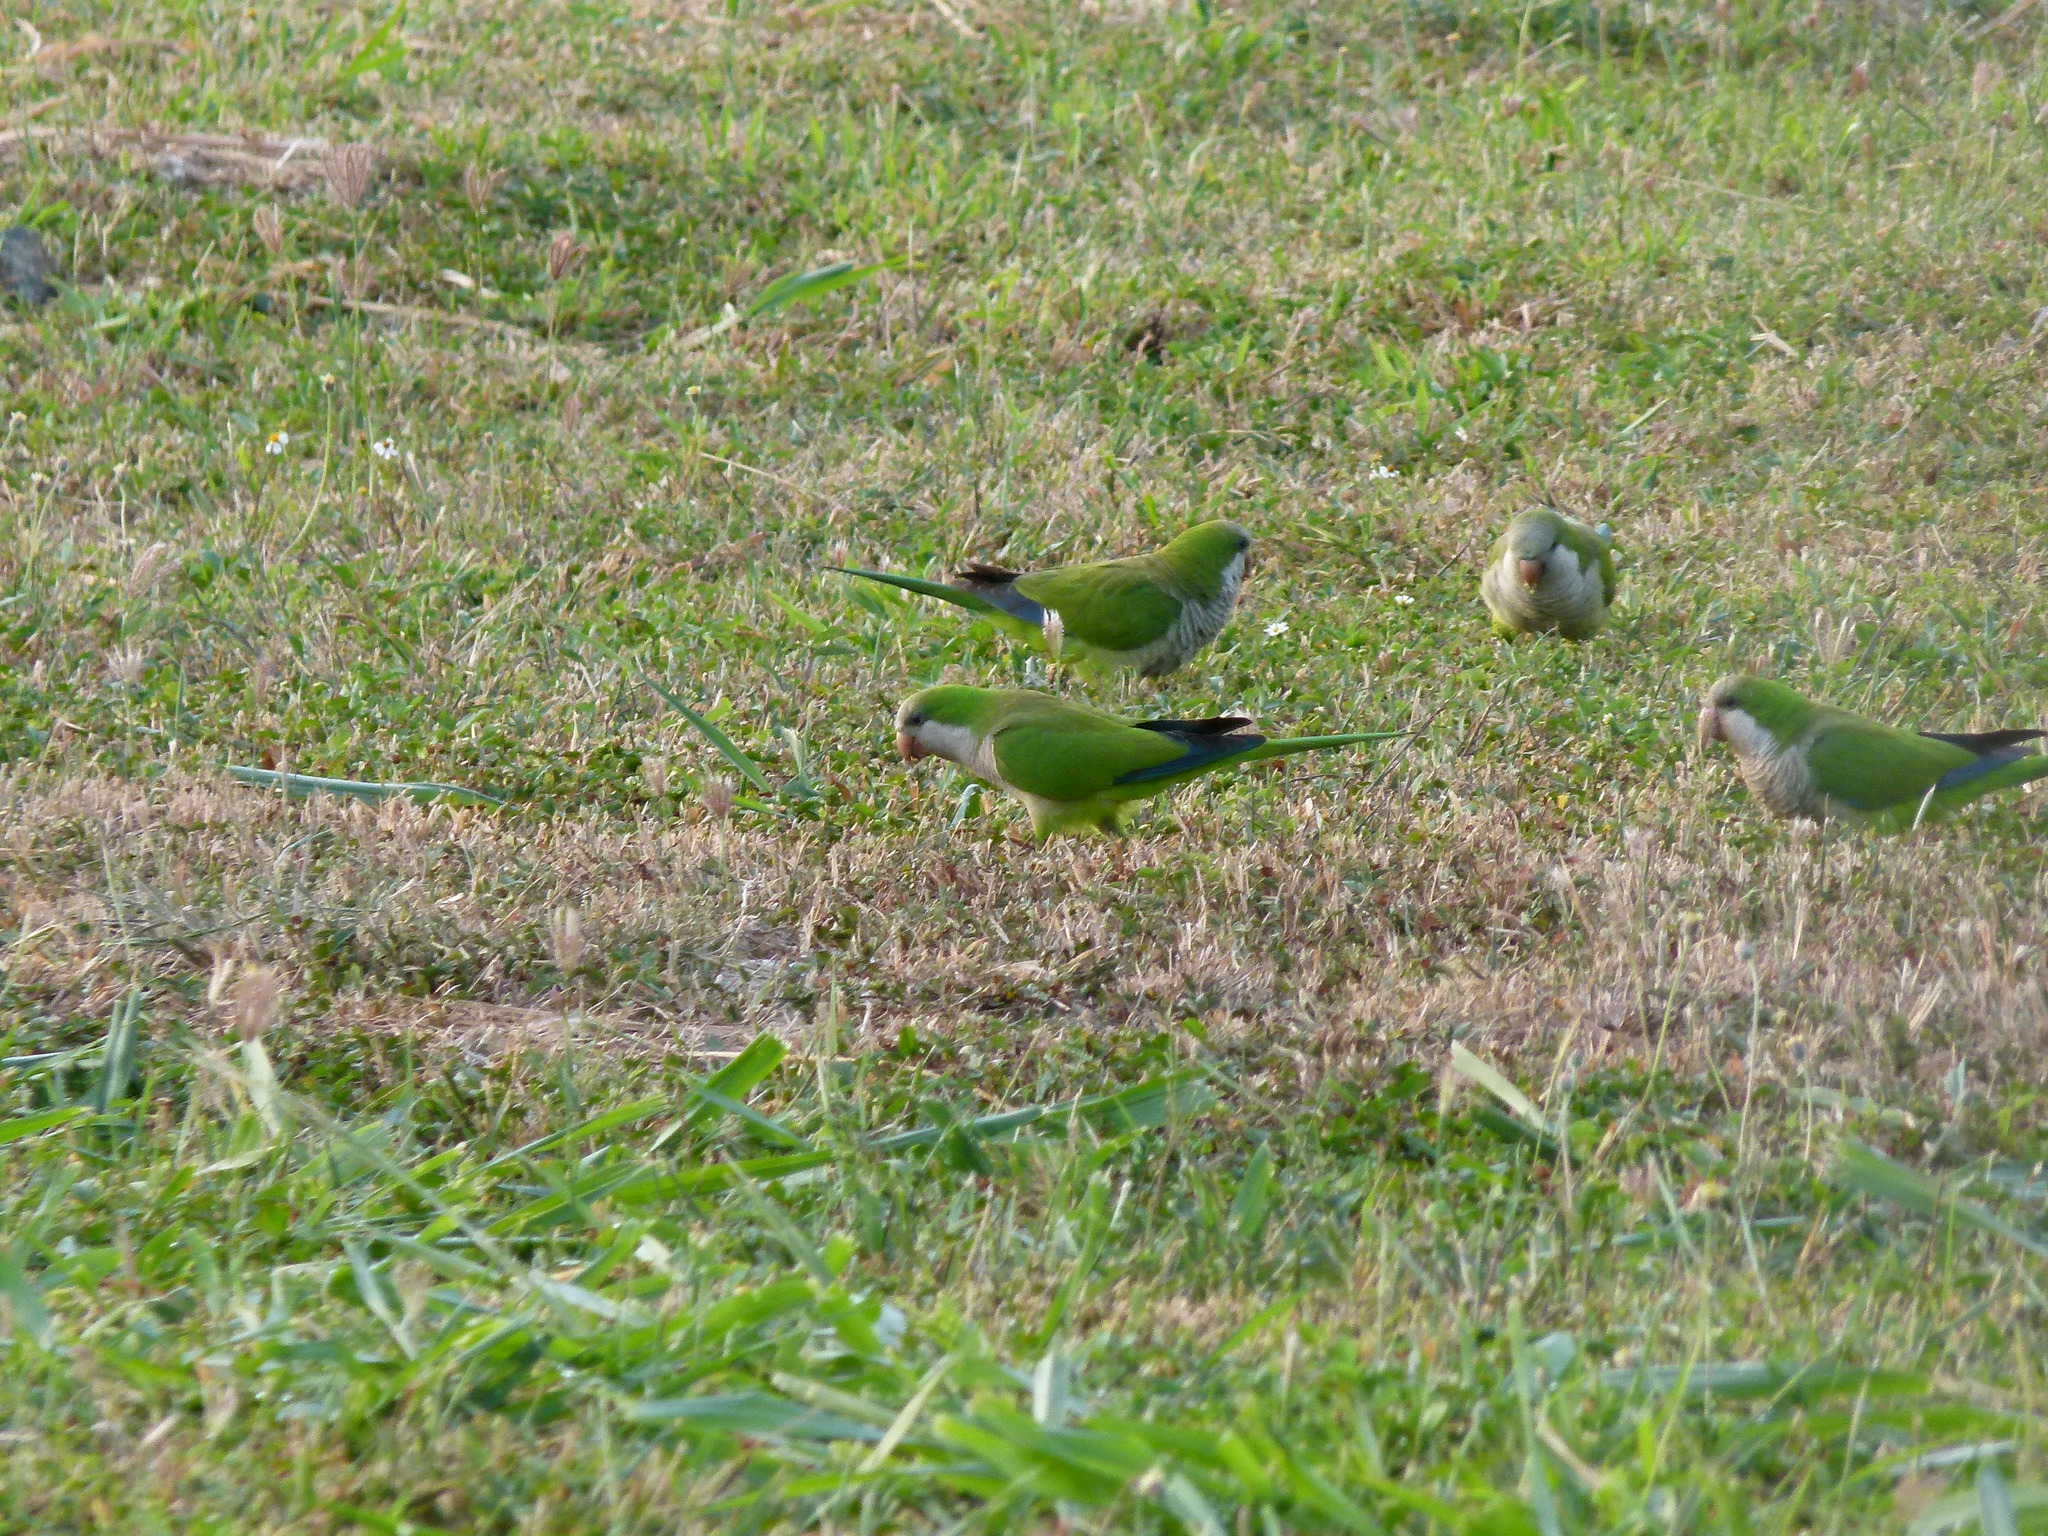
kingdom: Animalia
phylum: Chordata
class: Aves
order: Psittaciformes
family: Psittacidae
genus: Myiopsitta
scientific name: Myiopsitta monachus
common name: Monk parakeet
